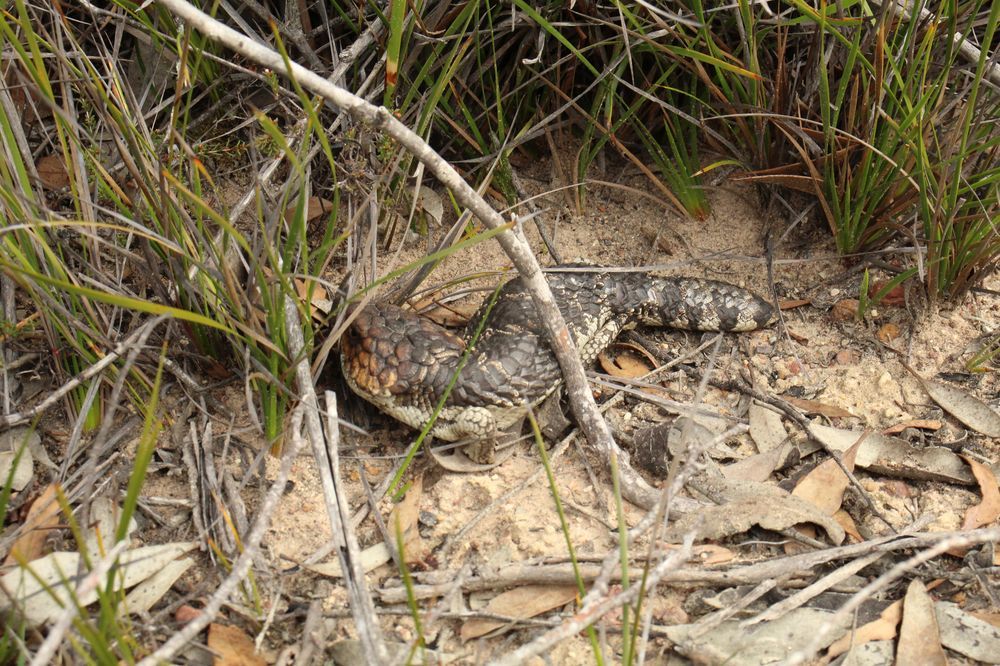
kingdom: Animalia
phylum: Chordata
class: Squamata
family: Scincidae
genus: Tiliqua
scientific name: Tiliqua rugosa
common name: Pinecone lizard
